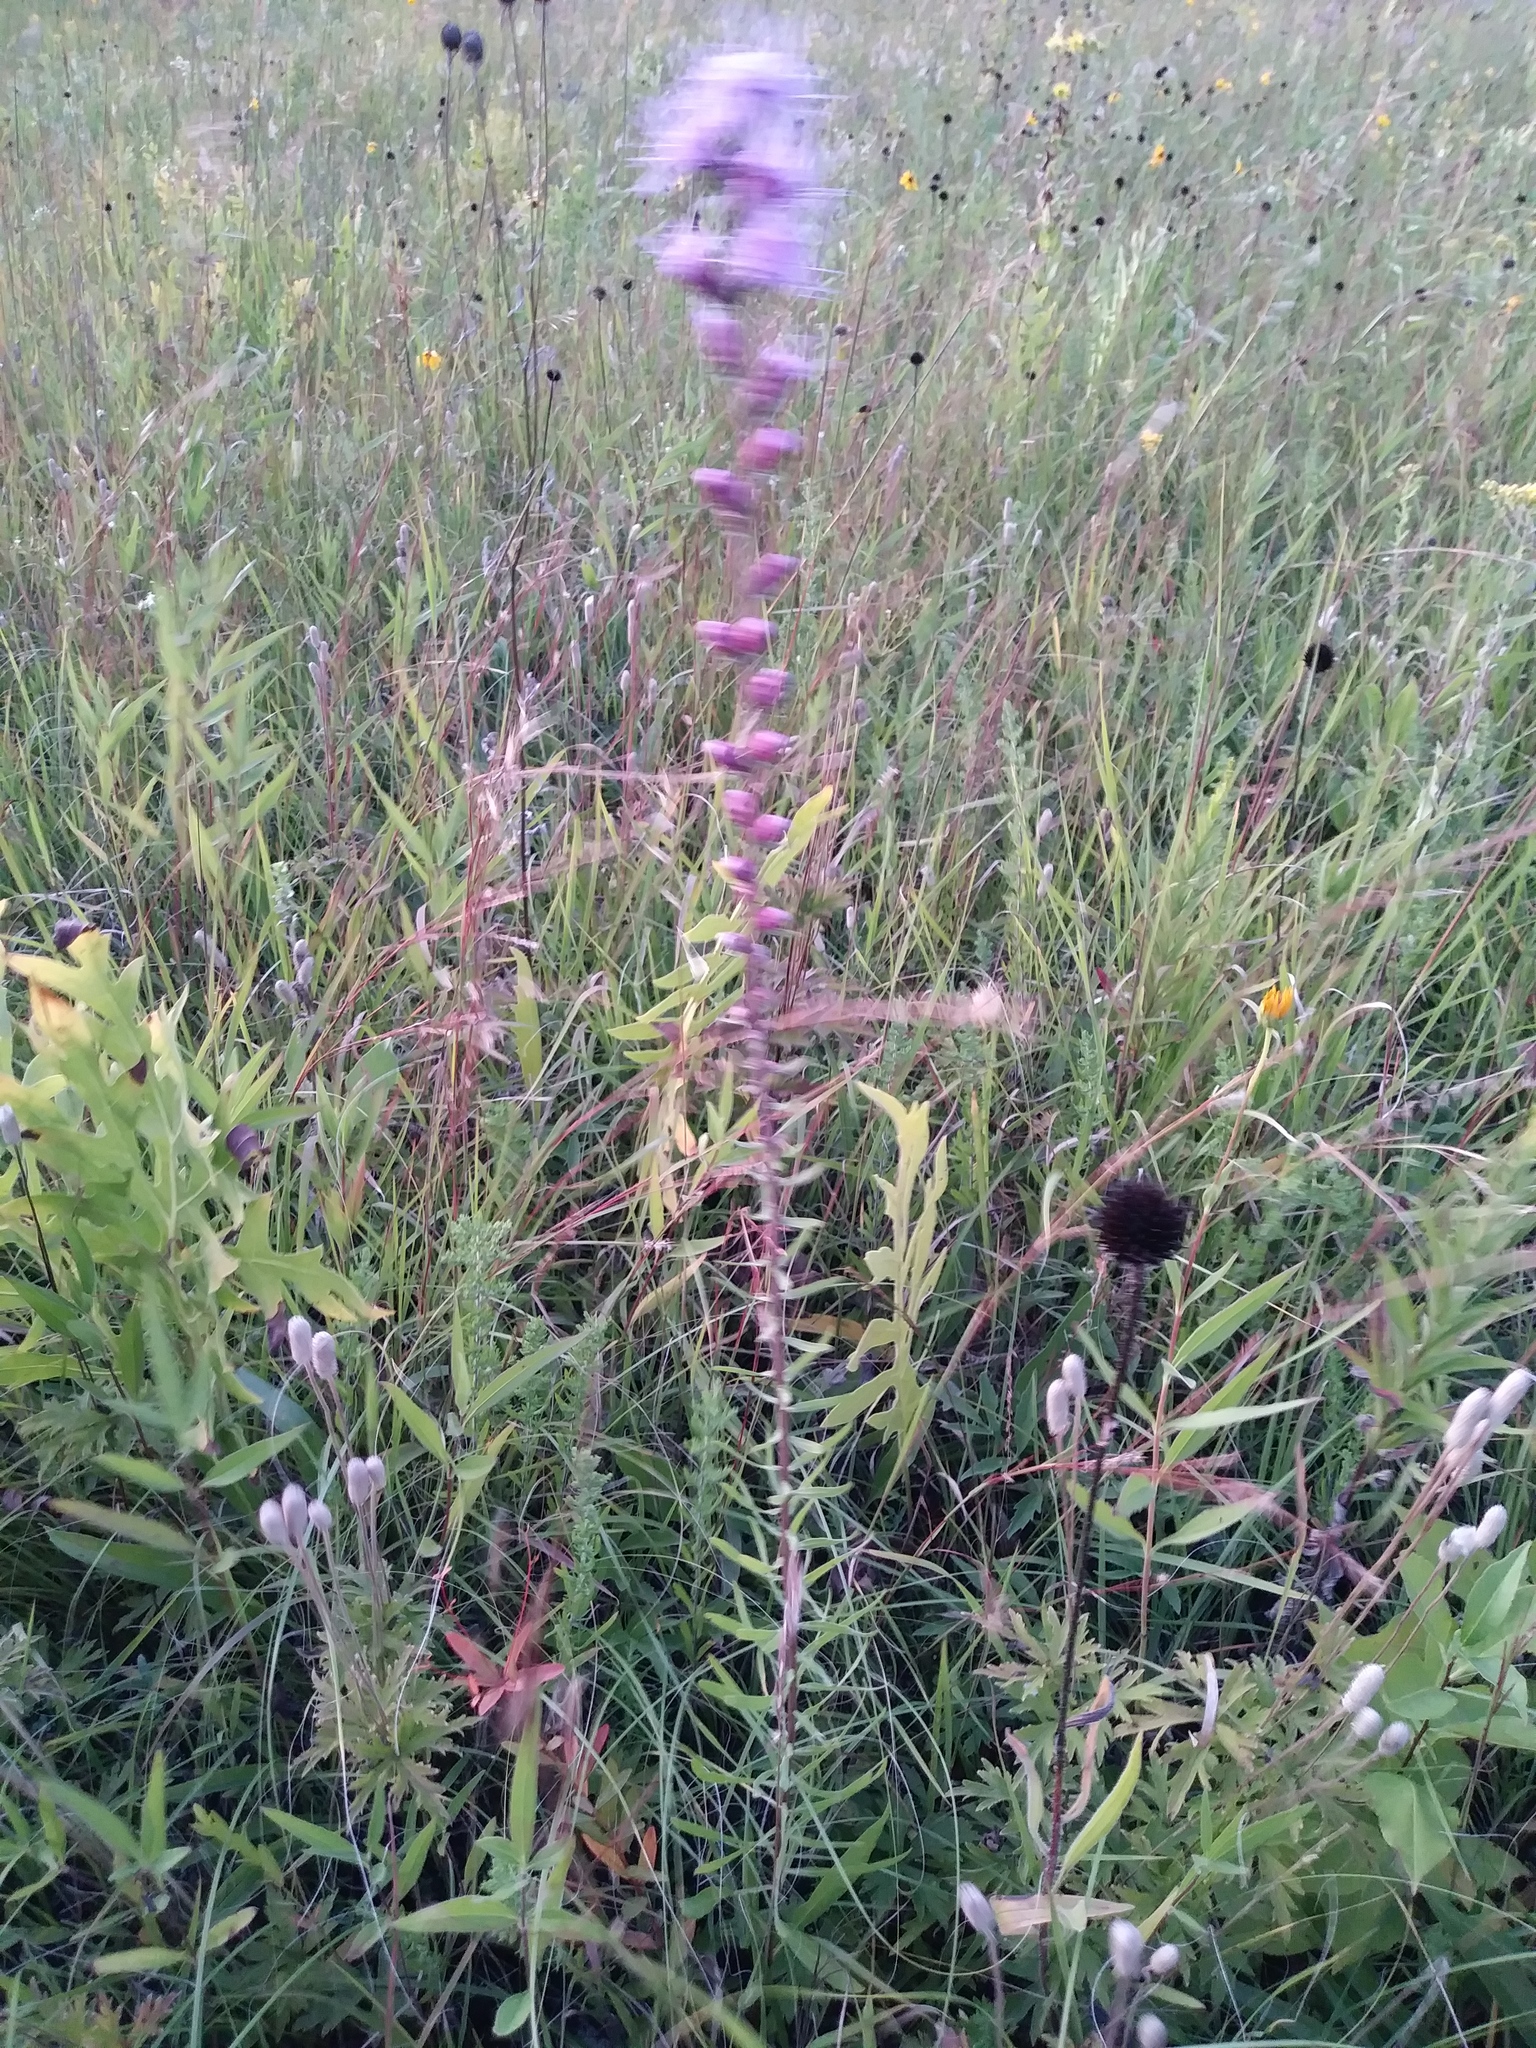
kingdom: Plantae
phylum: Tracheophyta
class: Magnoliopsida
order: Asterales
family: Asteraceae
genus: Liatris
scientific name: Liatris aspera
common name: Lacerate blazing-star
